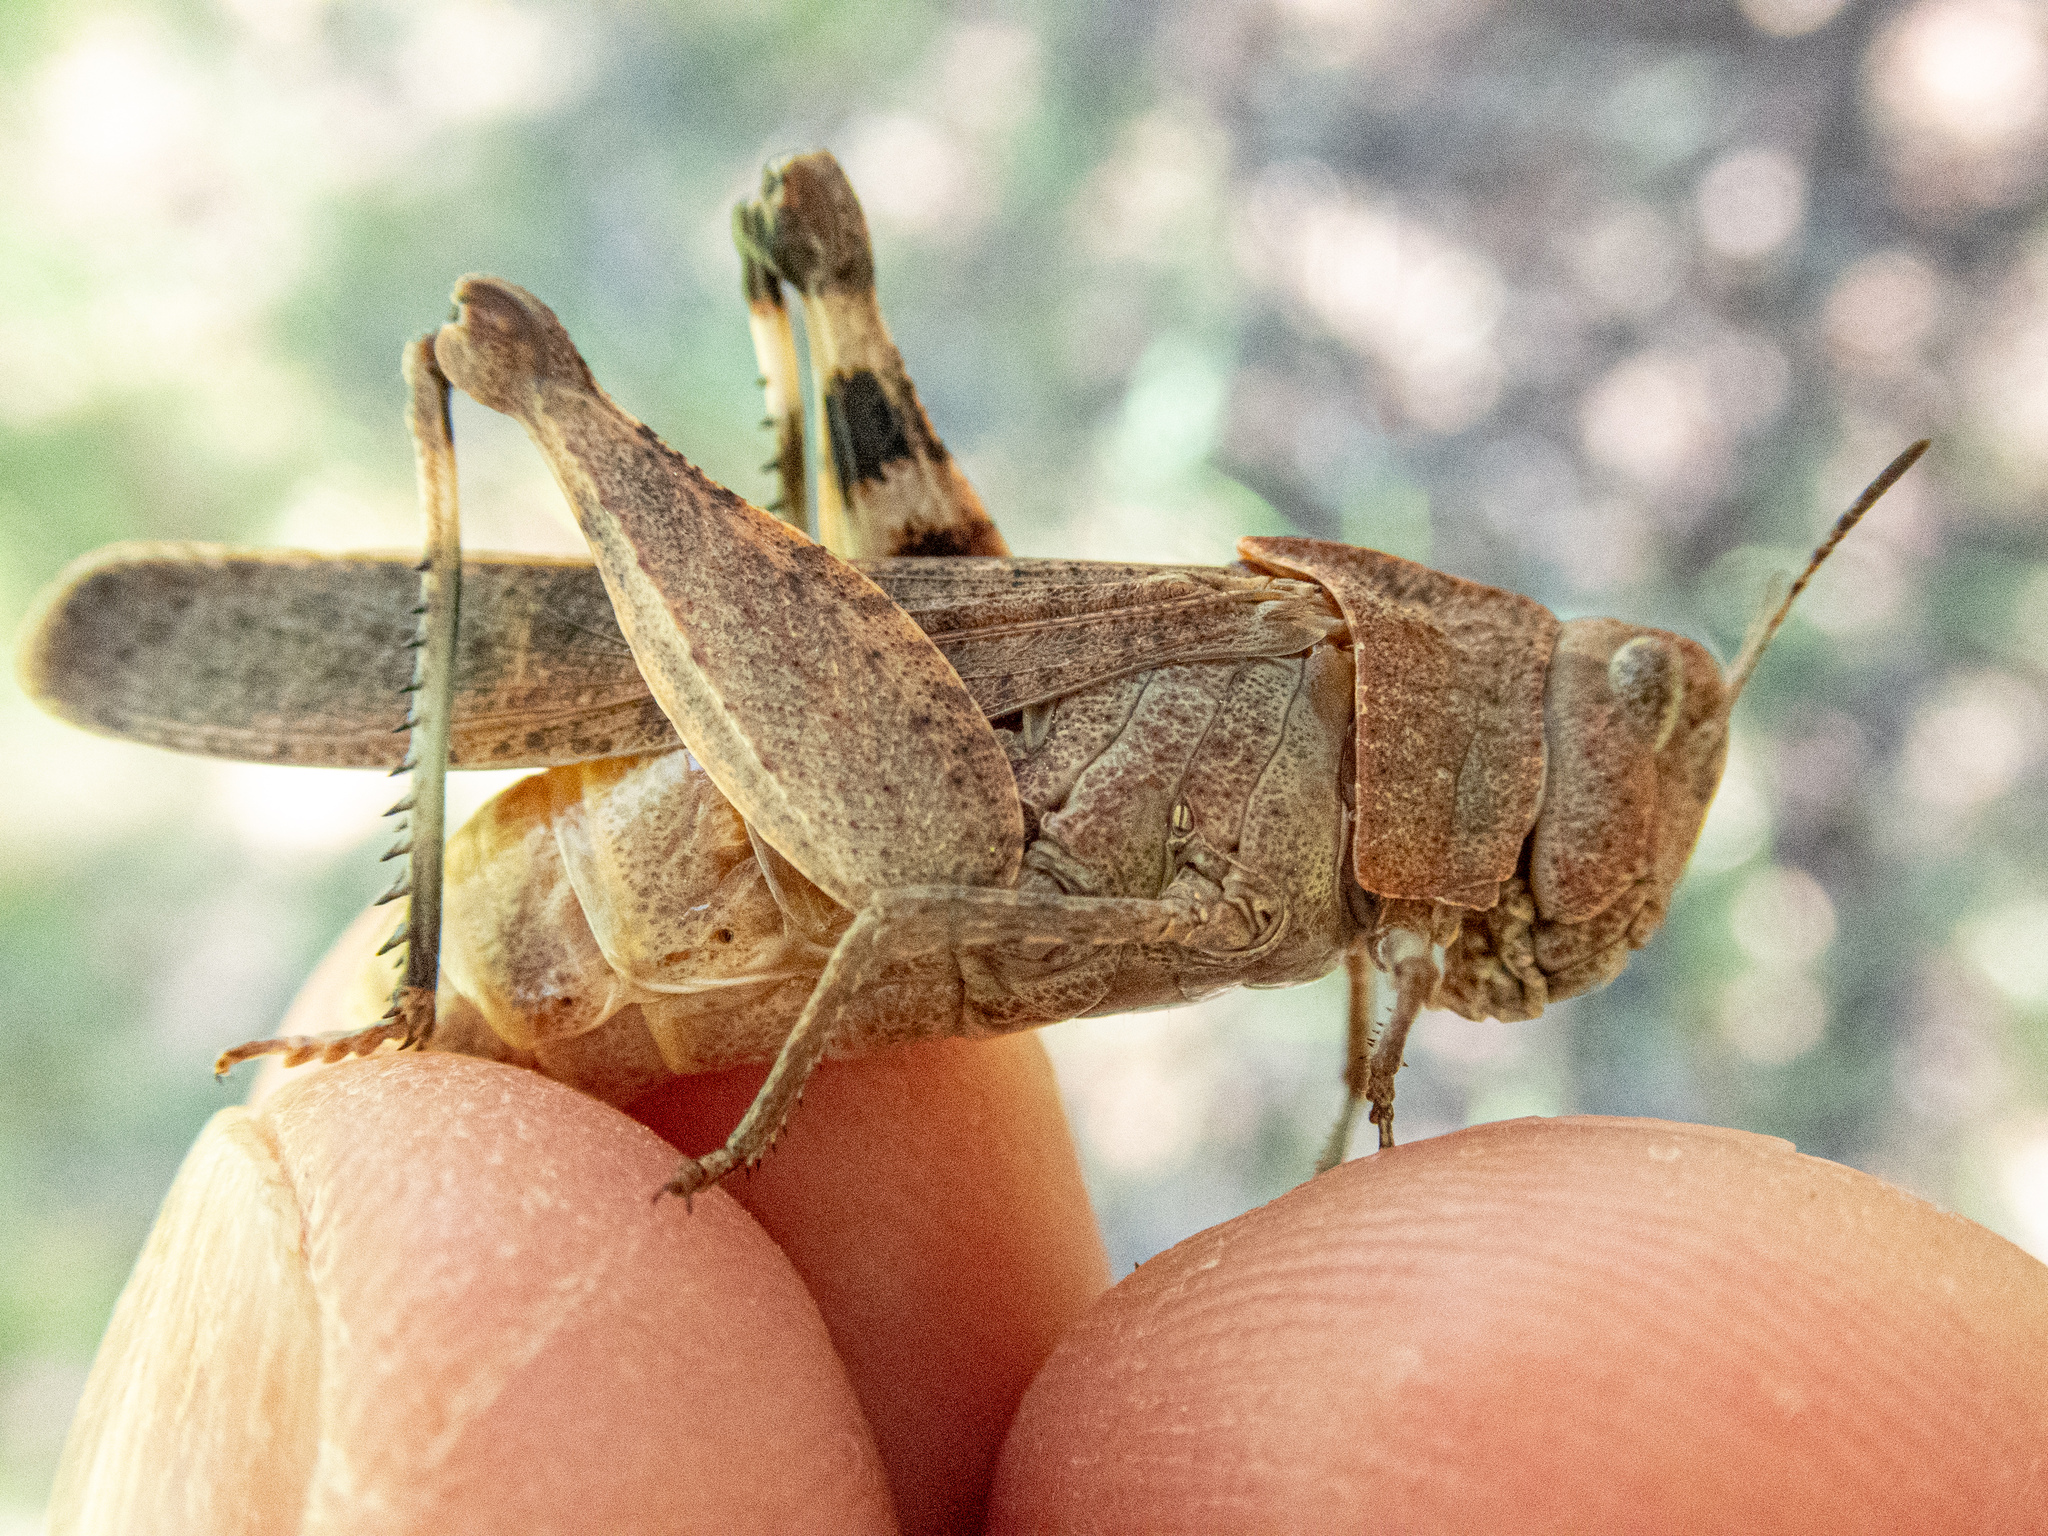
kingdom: Animalia
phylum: Arthropoda
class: Insecta
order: Orthoptera
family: Acrididae
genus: Arphia
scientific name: Arphia behrensi
